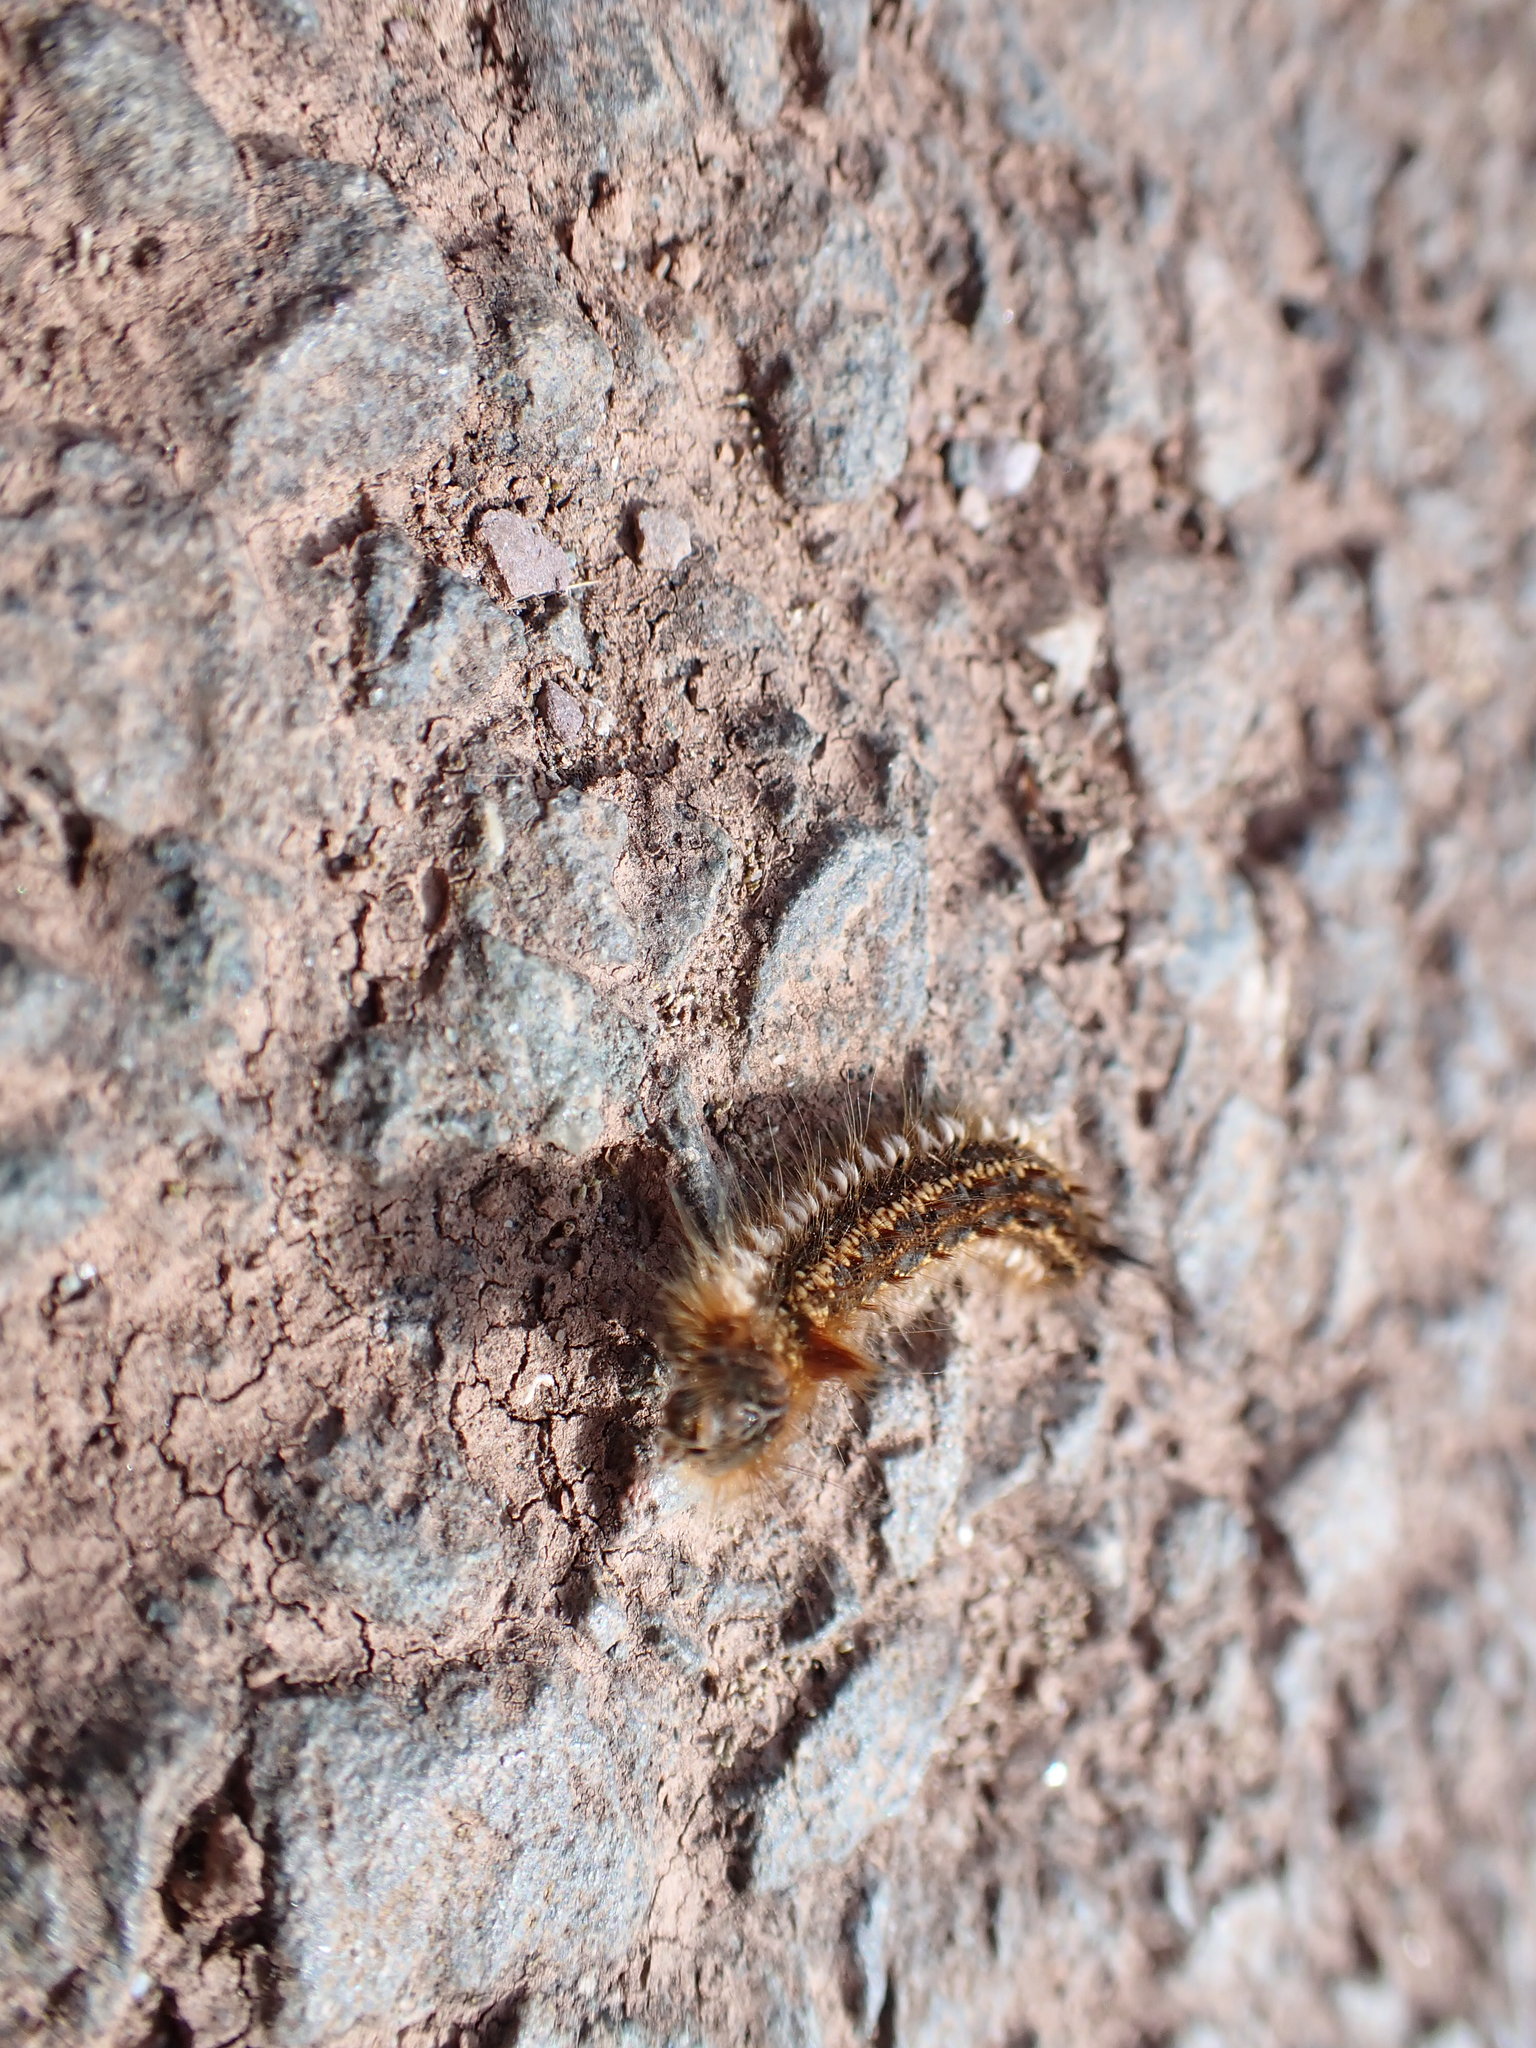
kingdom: Animalia
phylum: Arthropoda
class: Insecta
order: Lepidoptera
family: Lasiocampidae
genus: Euthrix
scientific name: Euthrix potatoria
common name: Drinker
